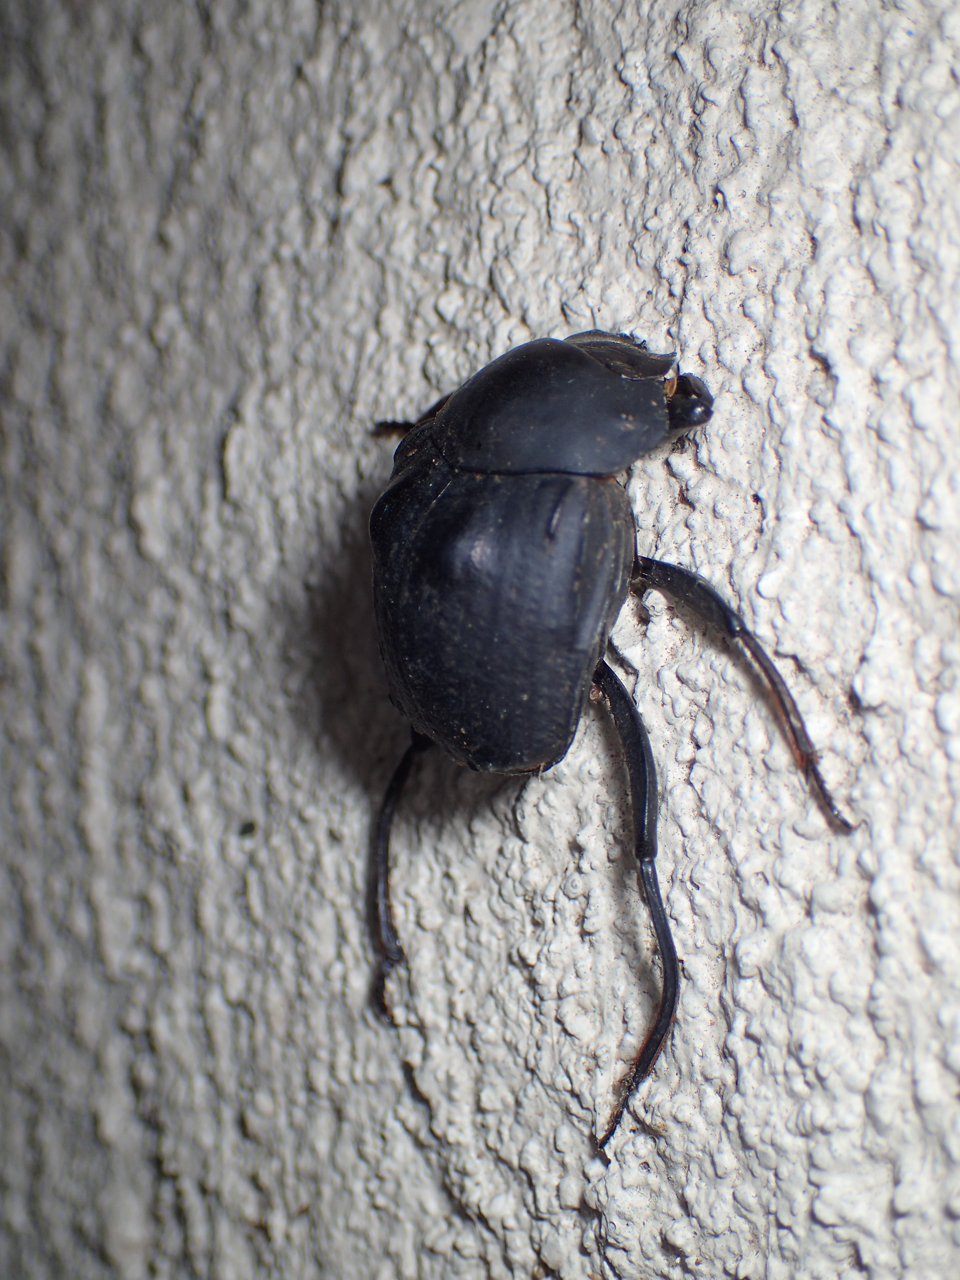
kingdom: Animalia
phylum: Arthropoda
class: Insecta
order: Coleoptera
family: Scarabaeidae
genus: Deltochilum
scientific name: Deltochilum gibbosum
